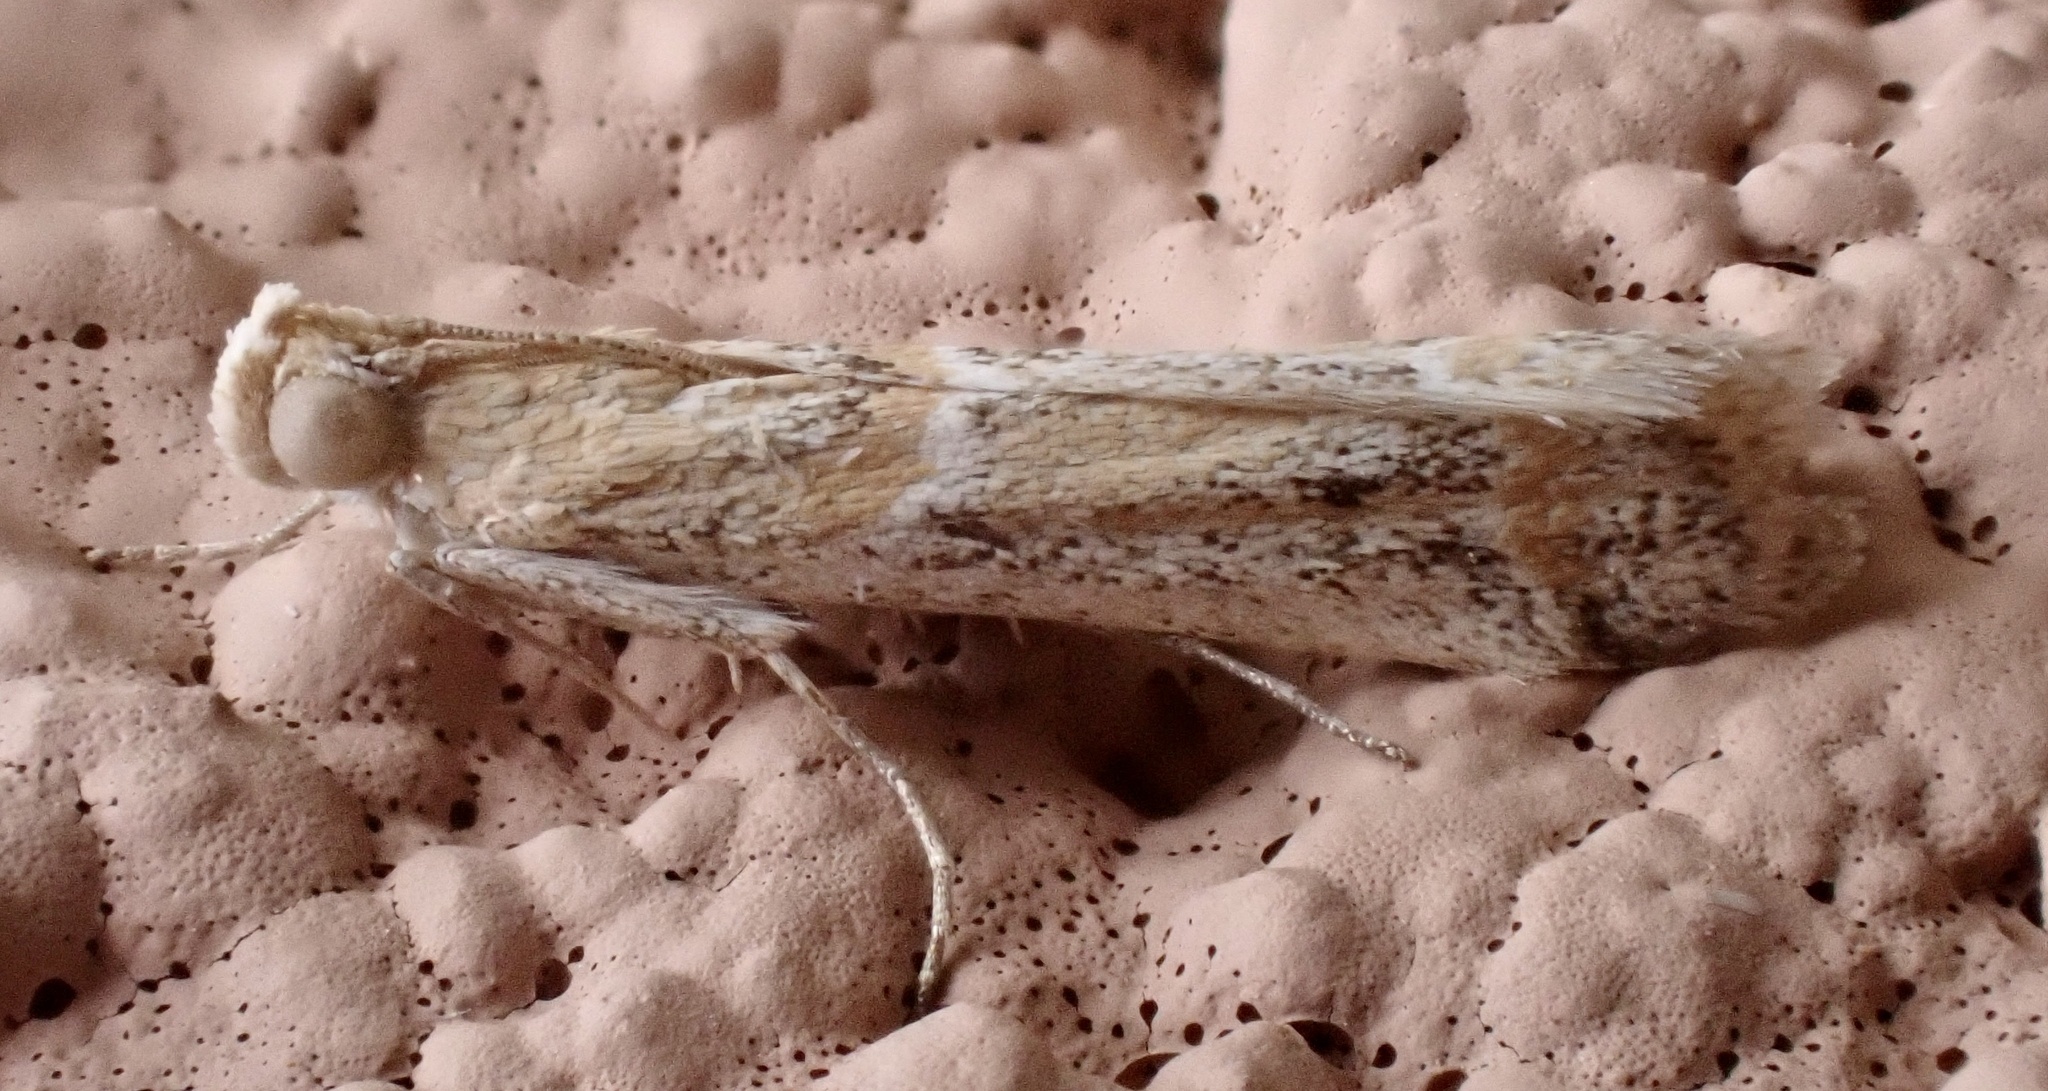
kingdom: Animalia
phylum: Arthropoda
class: Insecta
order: Lepidoptera
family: Pyralidae
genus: Ancylosis
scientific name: Ancylosis samaritanella
